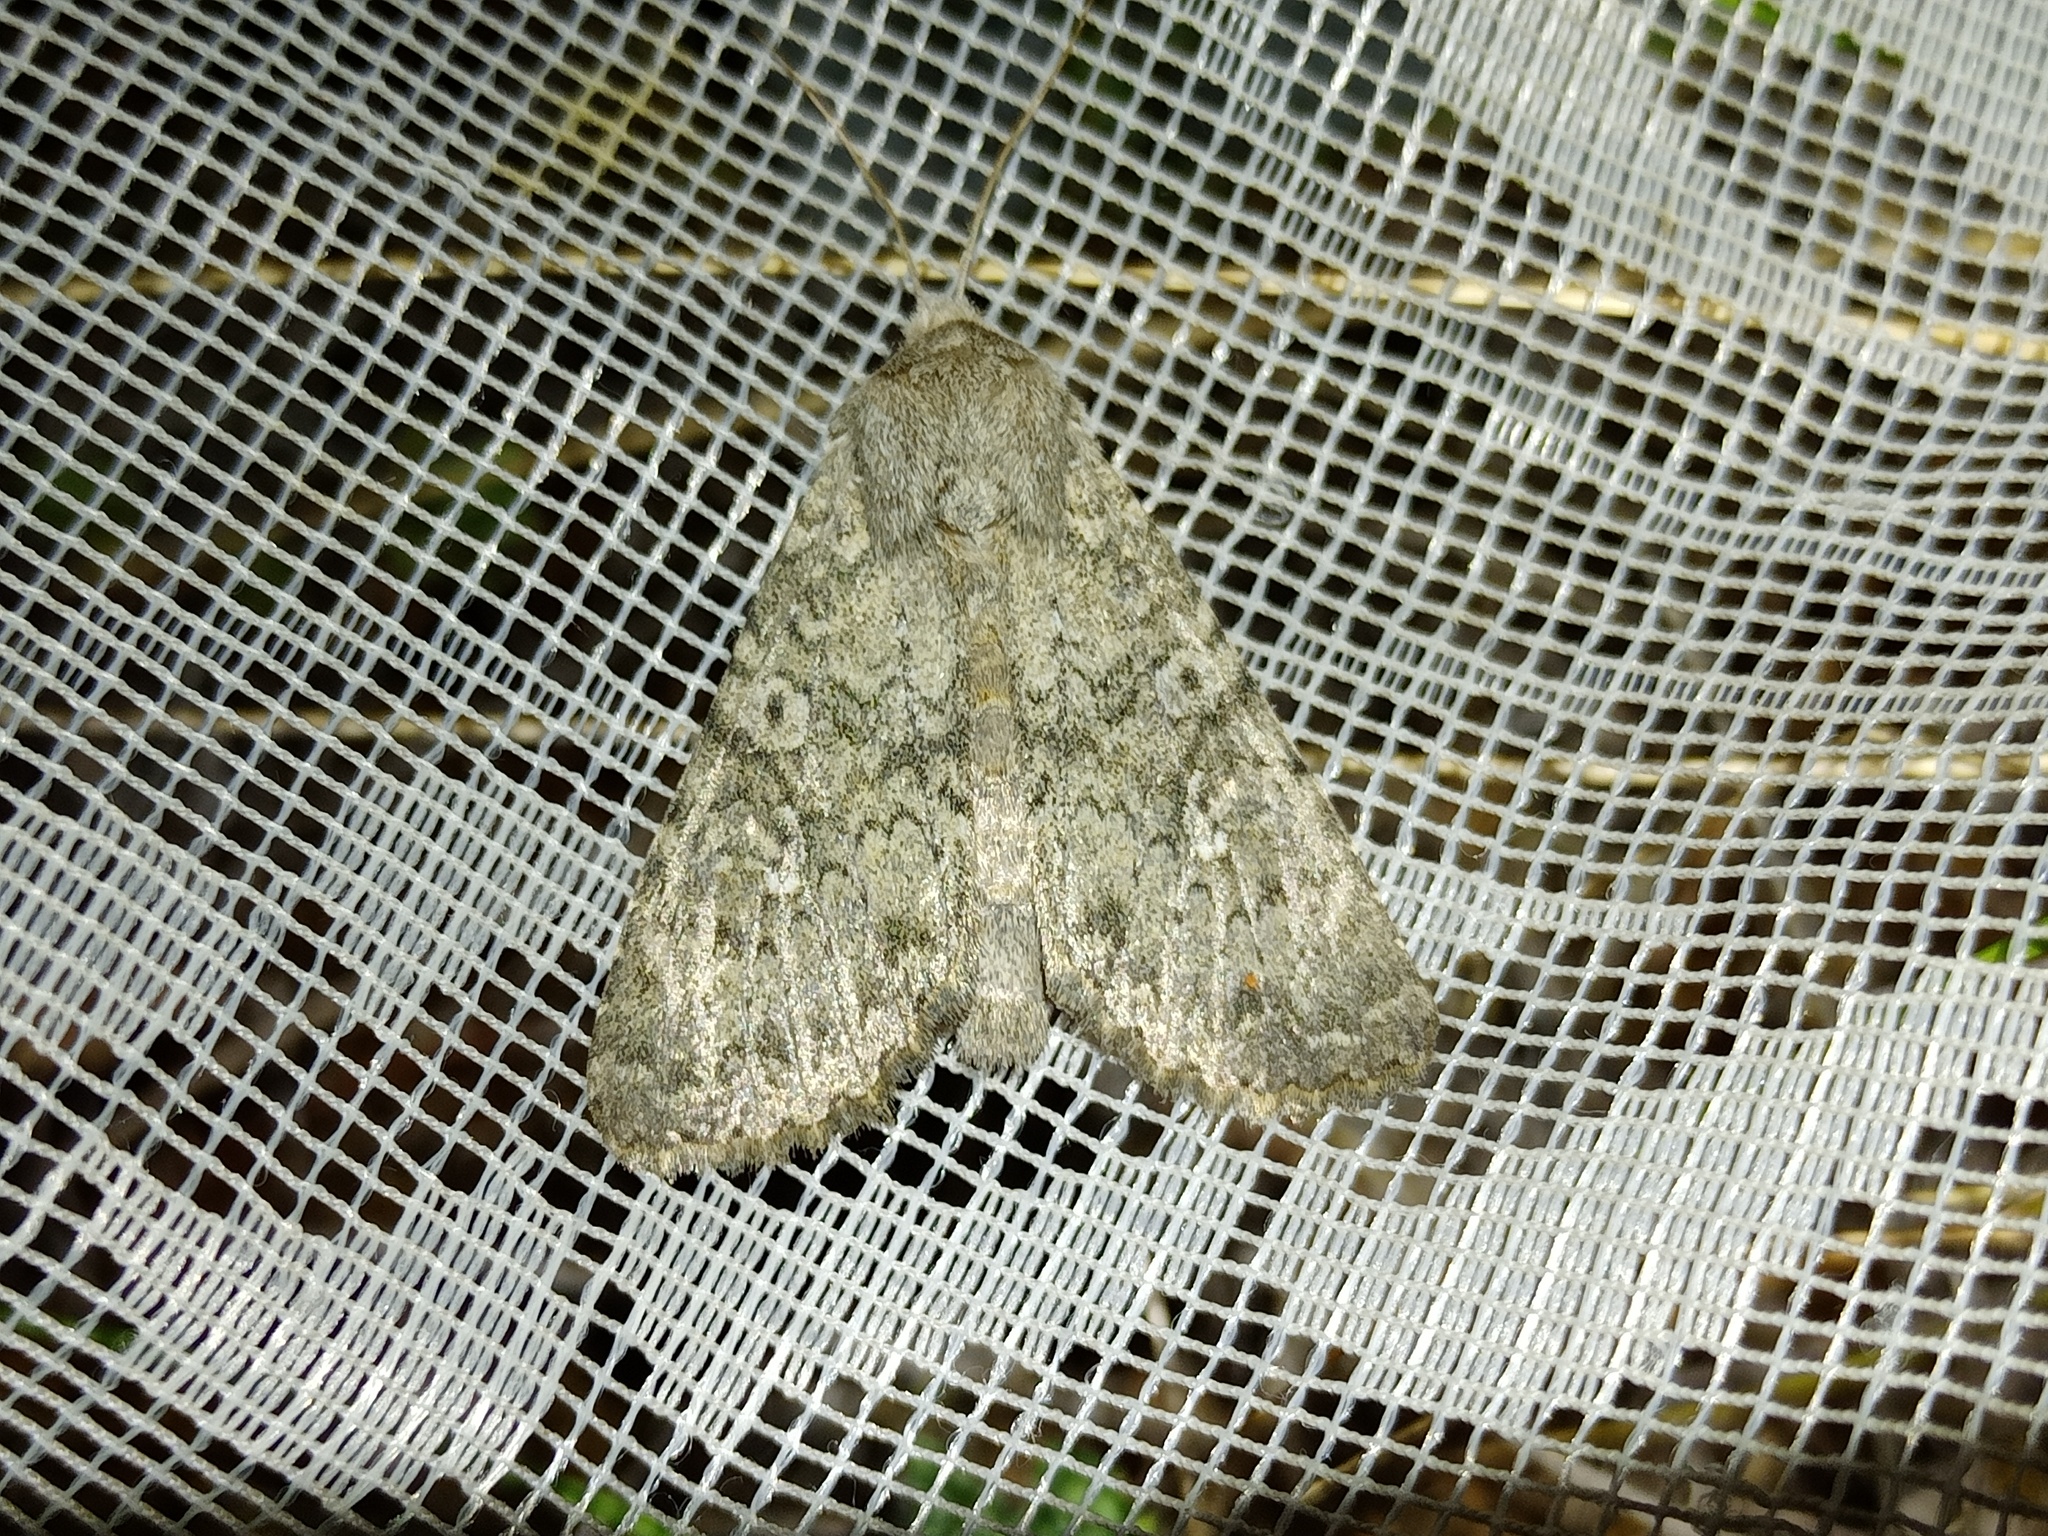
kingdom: Animalia
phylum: Arthropoda
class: Insecta
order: Lepidoptera
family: Noctuidae
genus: Polia
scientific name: Polia serratilinea
